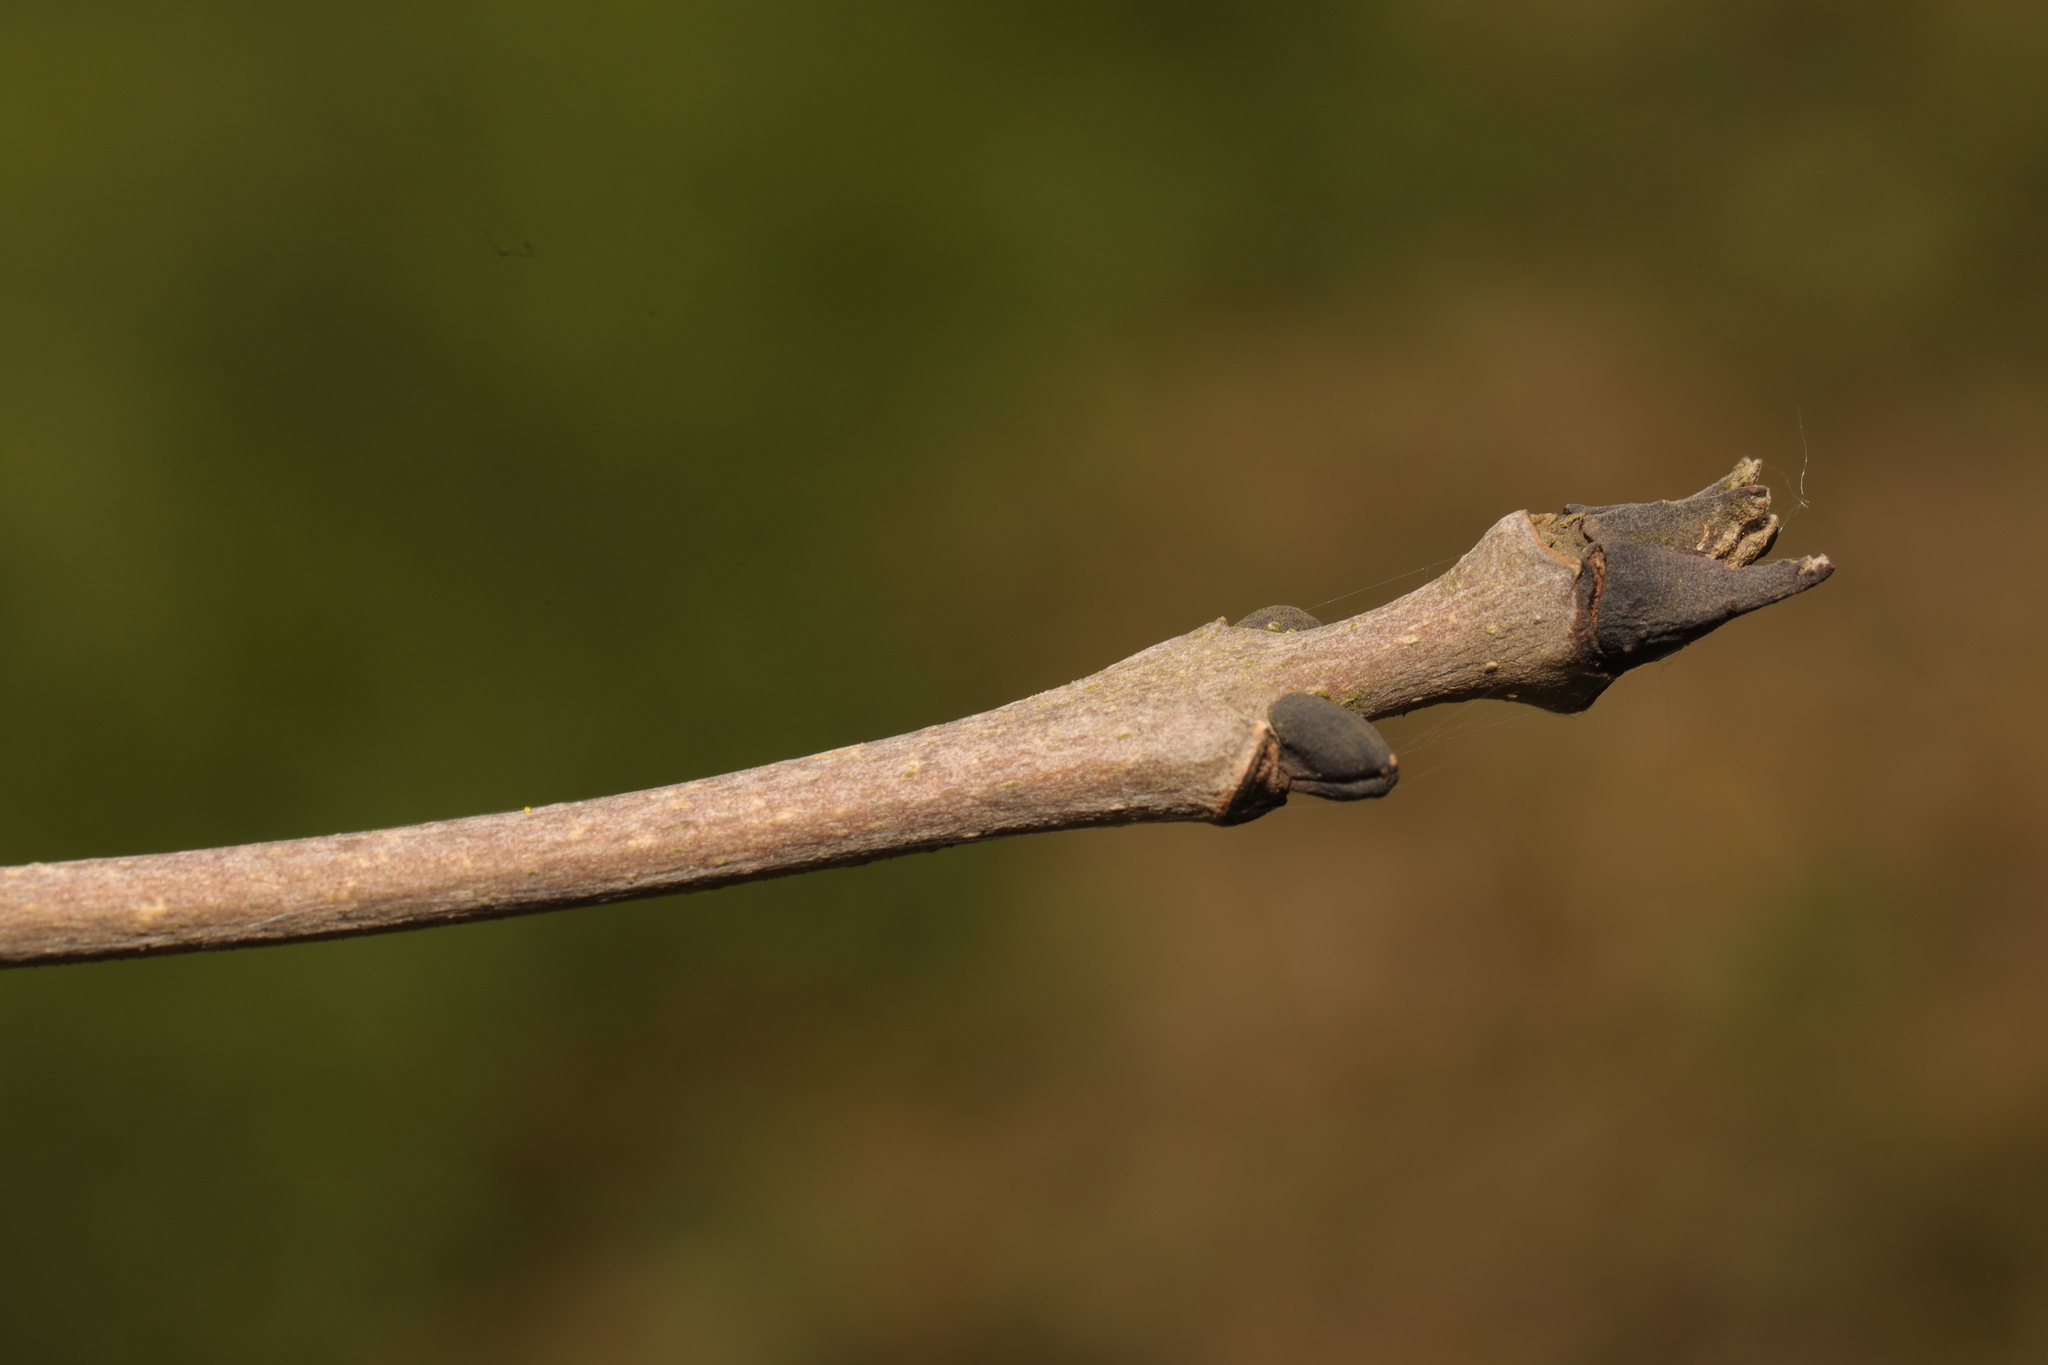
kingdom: Plantae
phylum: Tracheophyta
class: Magnoliopsida
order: Lamiales
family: Oleaceae
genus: Fraxinus
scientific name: Fraxinus excelsior
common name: European ash
